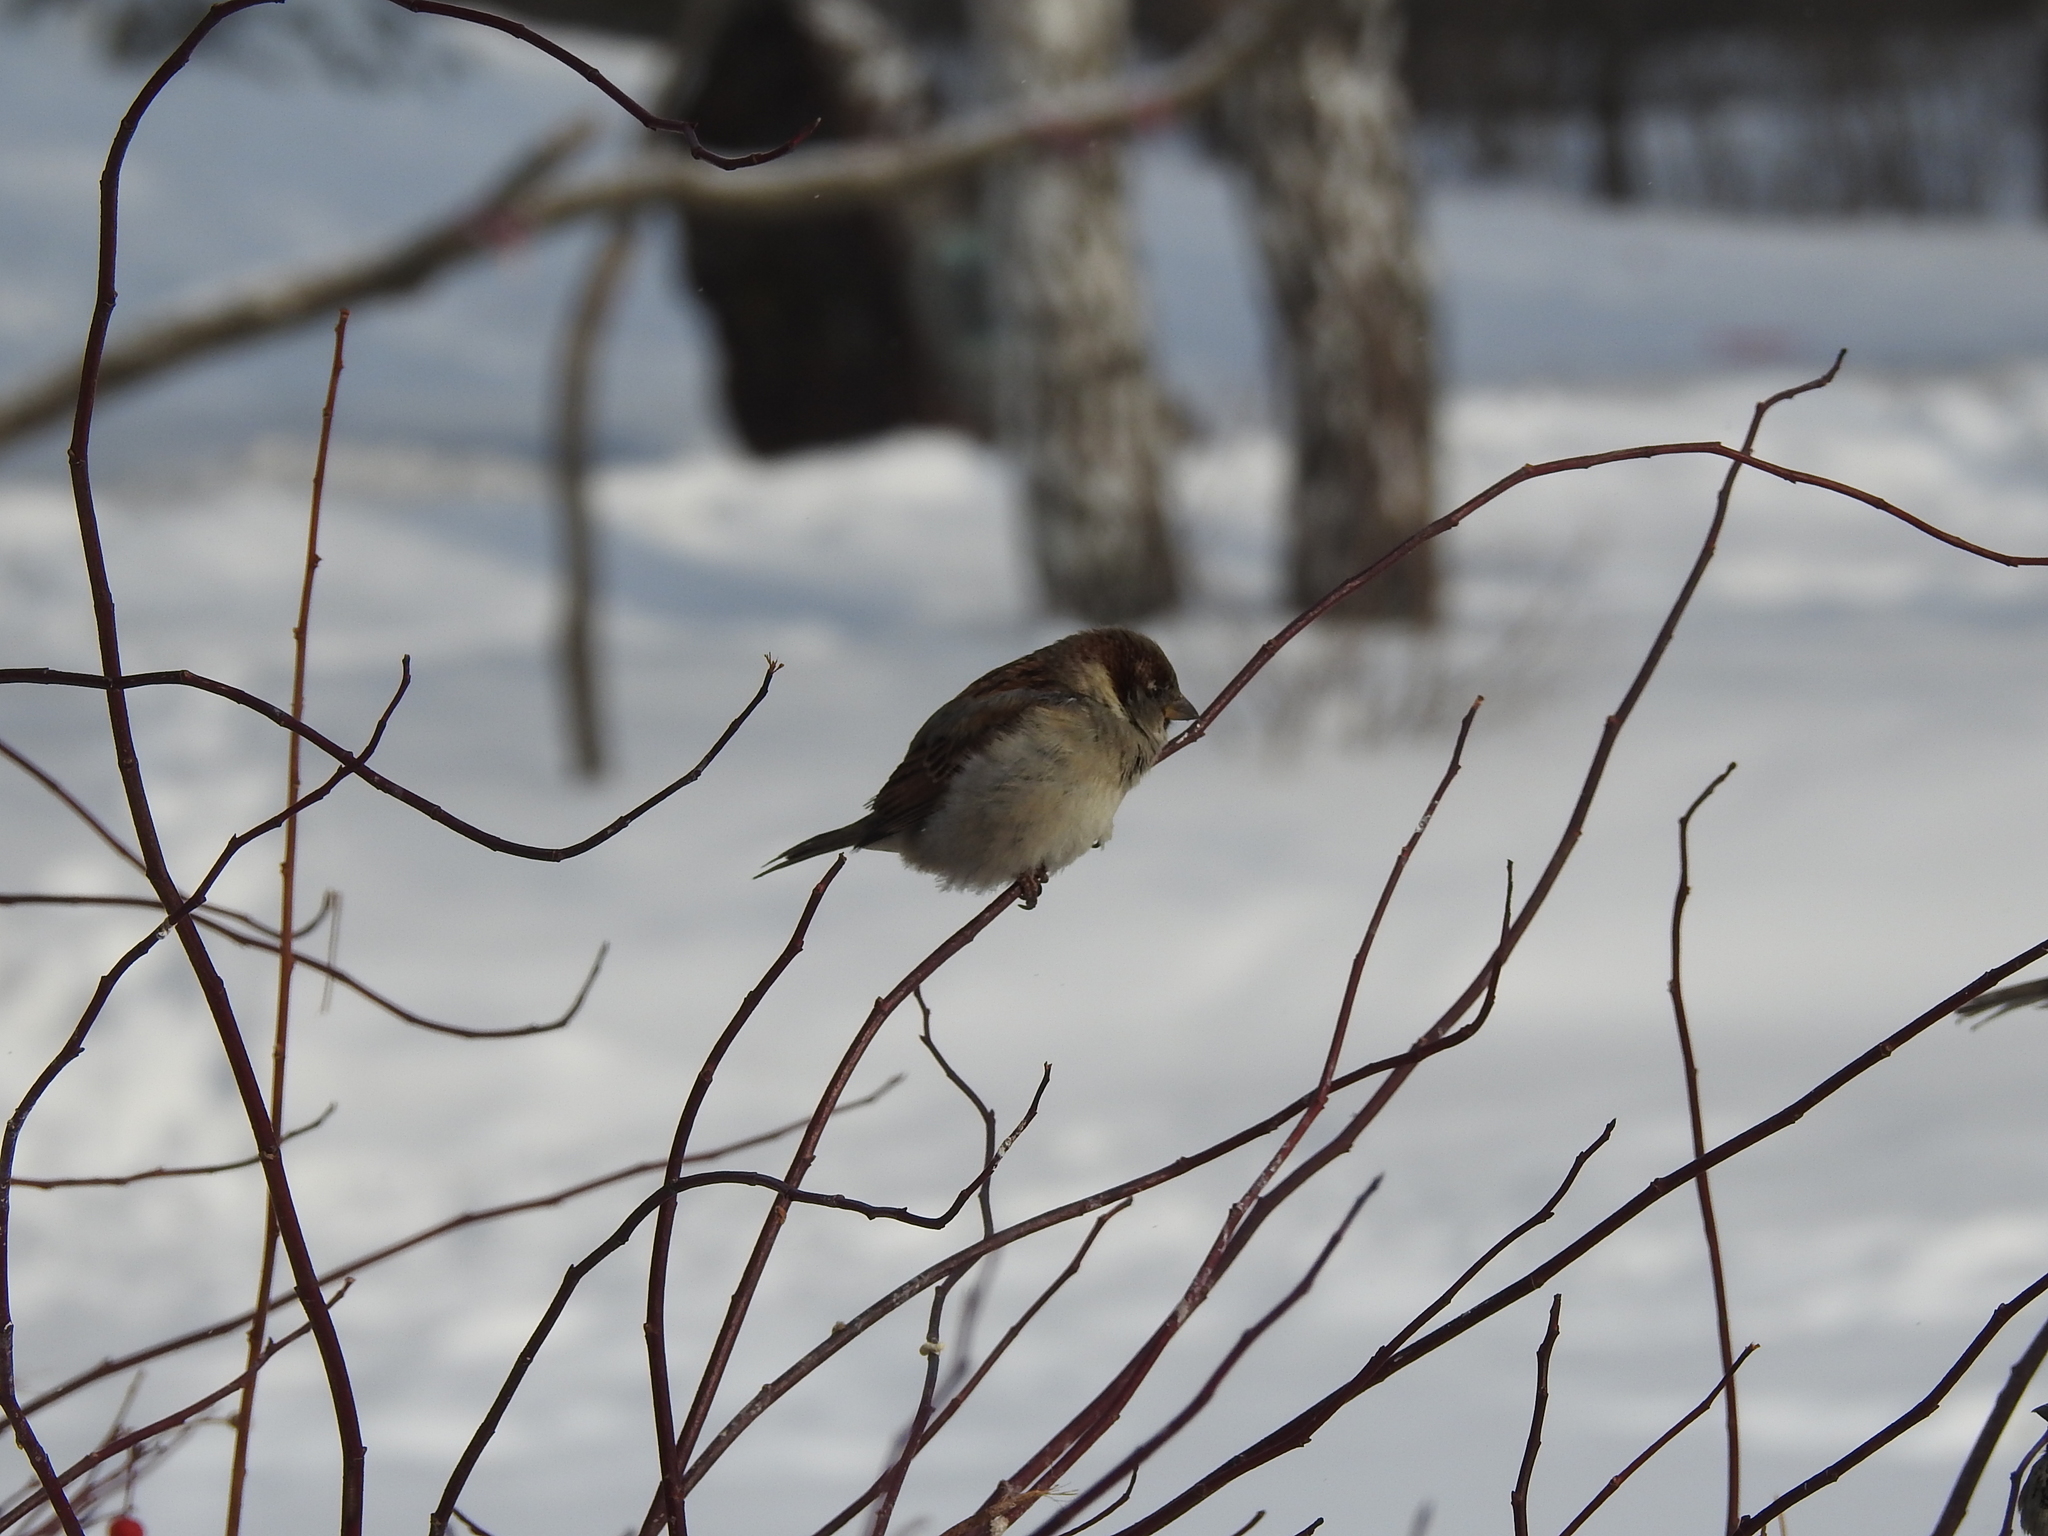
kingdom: Animalia
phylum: Chordata
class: Aves
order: Passeriformes
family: Passeridae
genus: Passer
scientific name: Passer domesticus
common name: House sparrow
